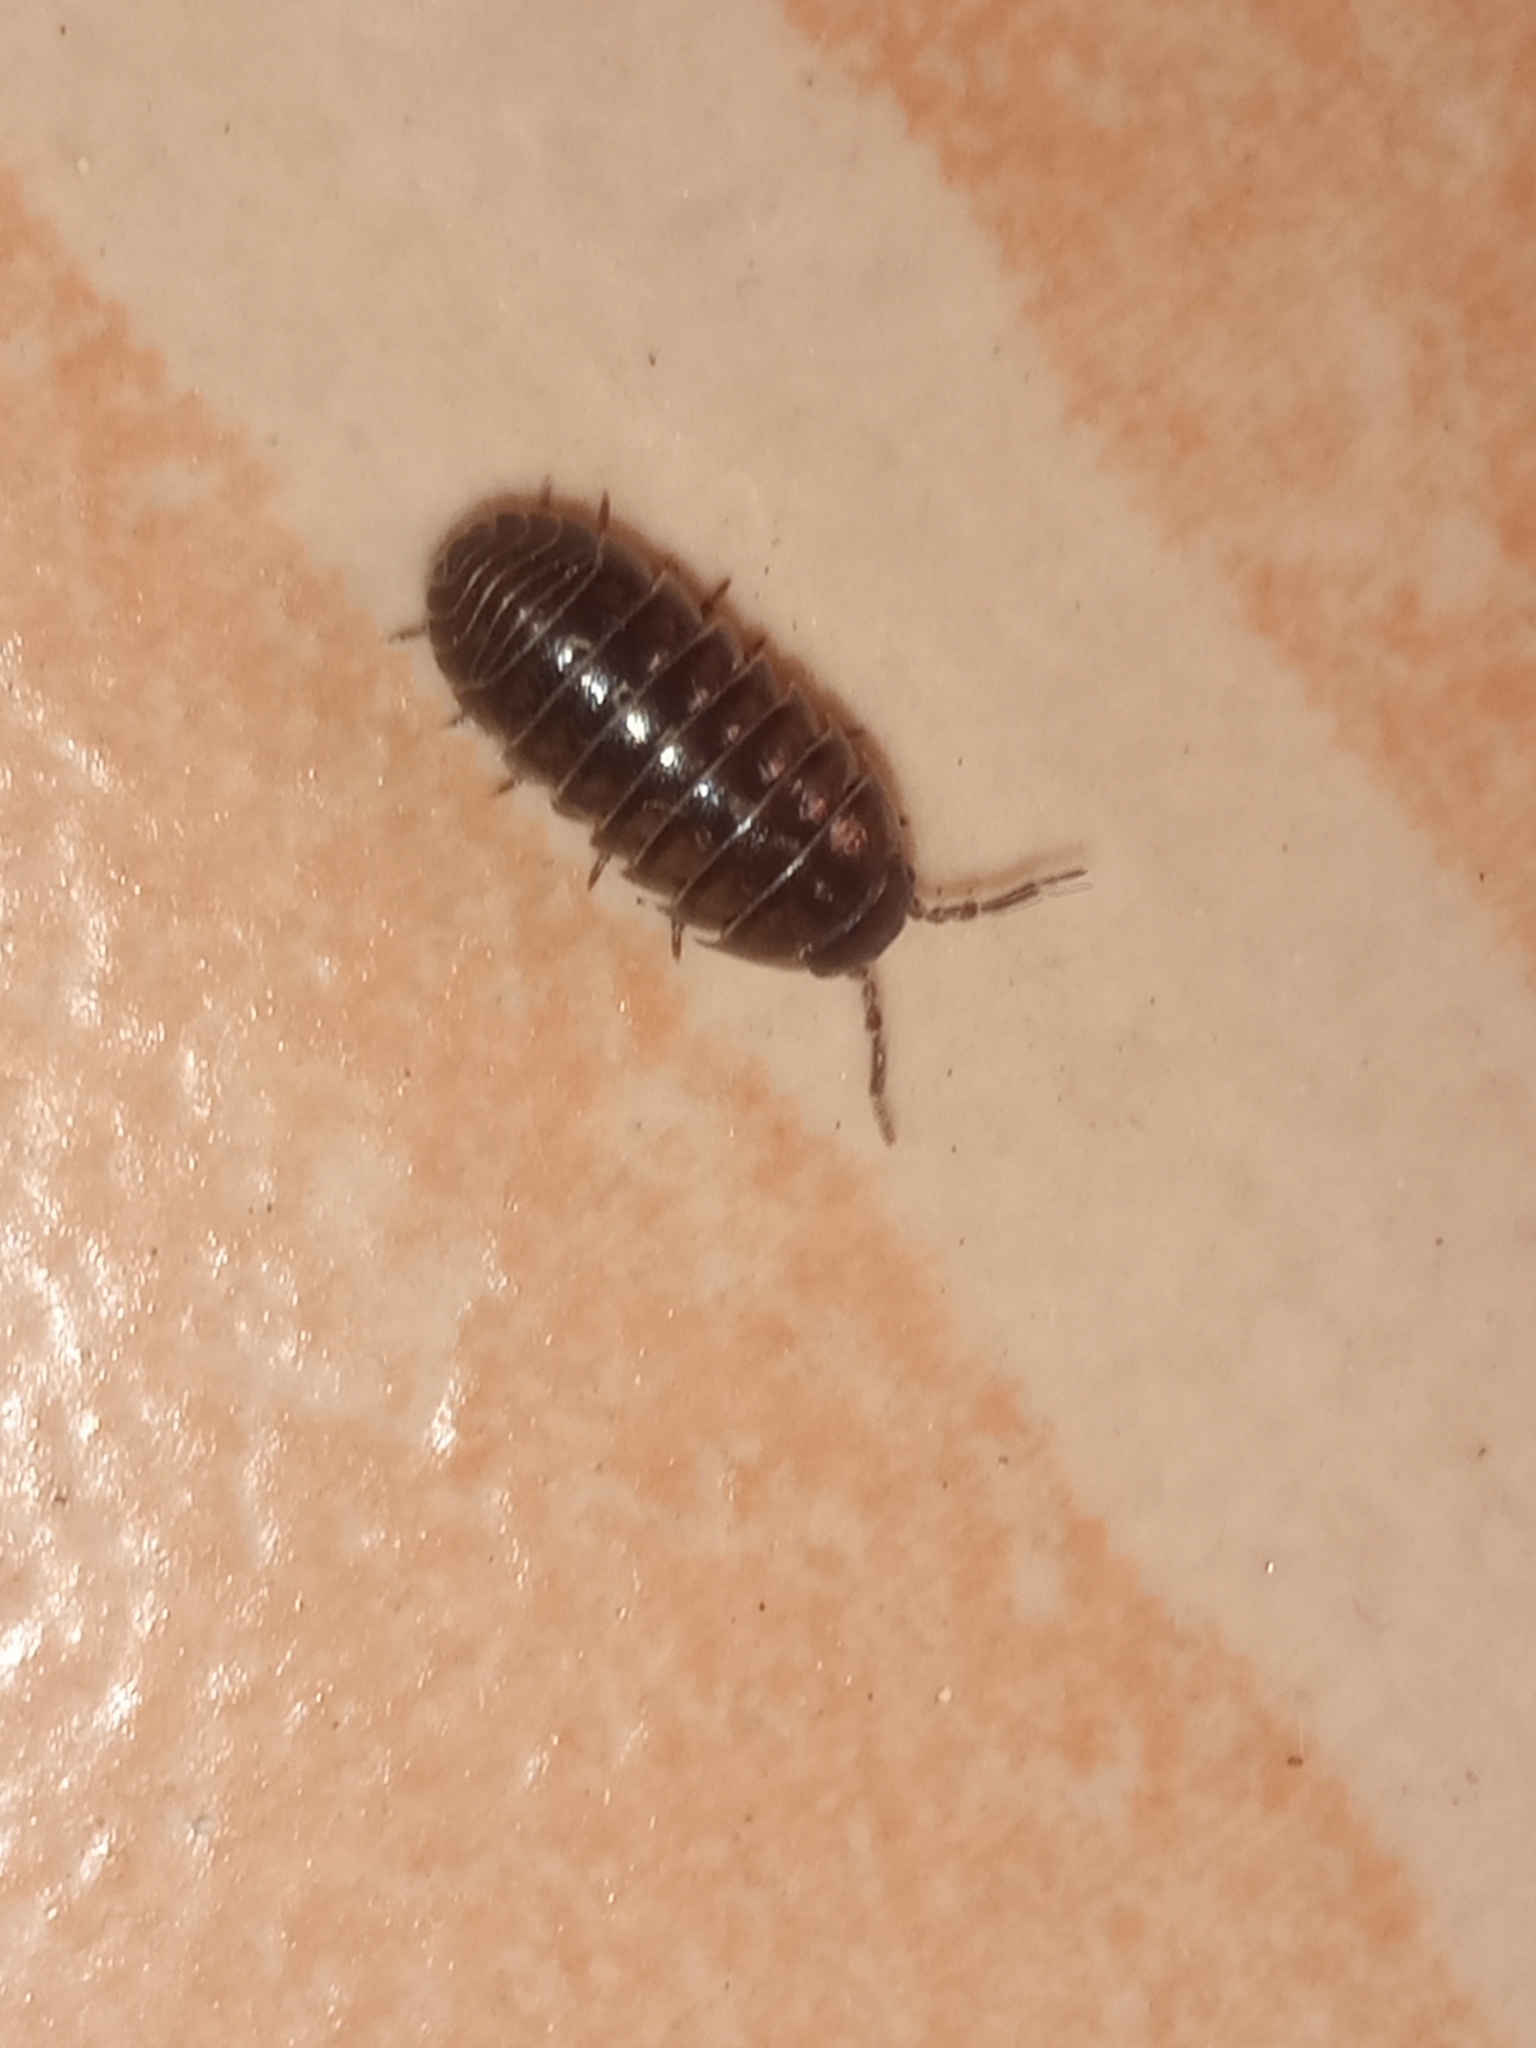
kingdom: Animalia
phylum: Arthropoda
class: Malacostraca
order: Isopoda
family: Armadillidiidae
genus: Armadillidium
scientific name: Armadillidium vulgare
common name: Common pill woodlouse
